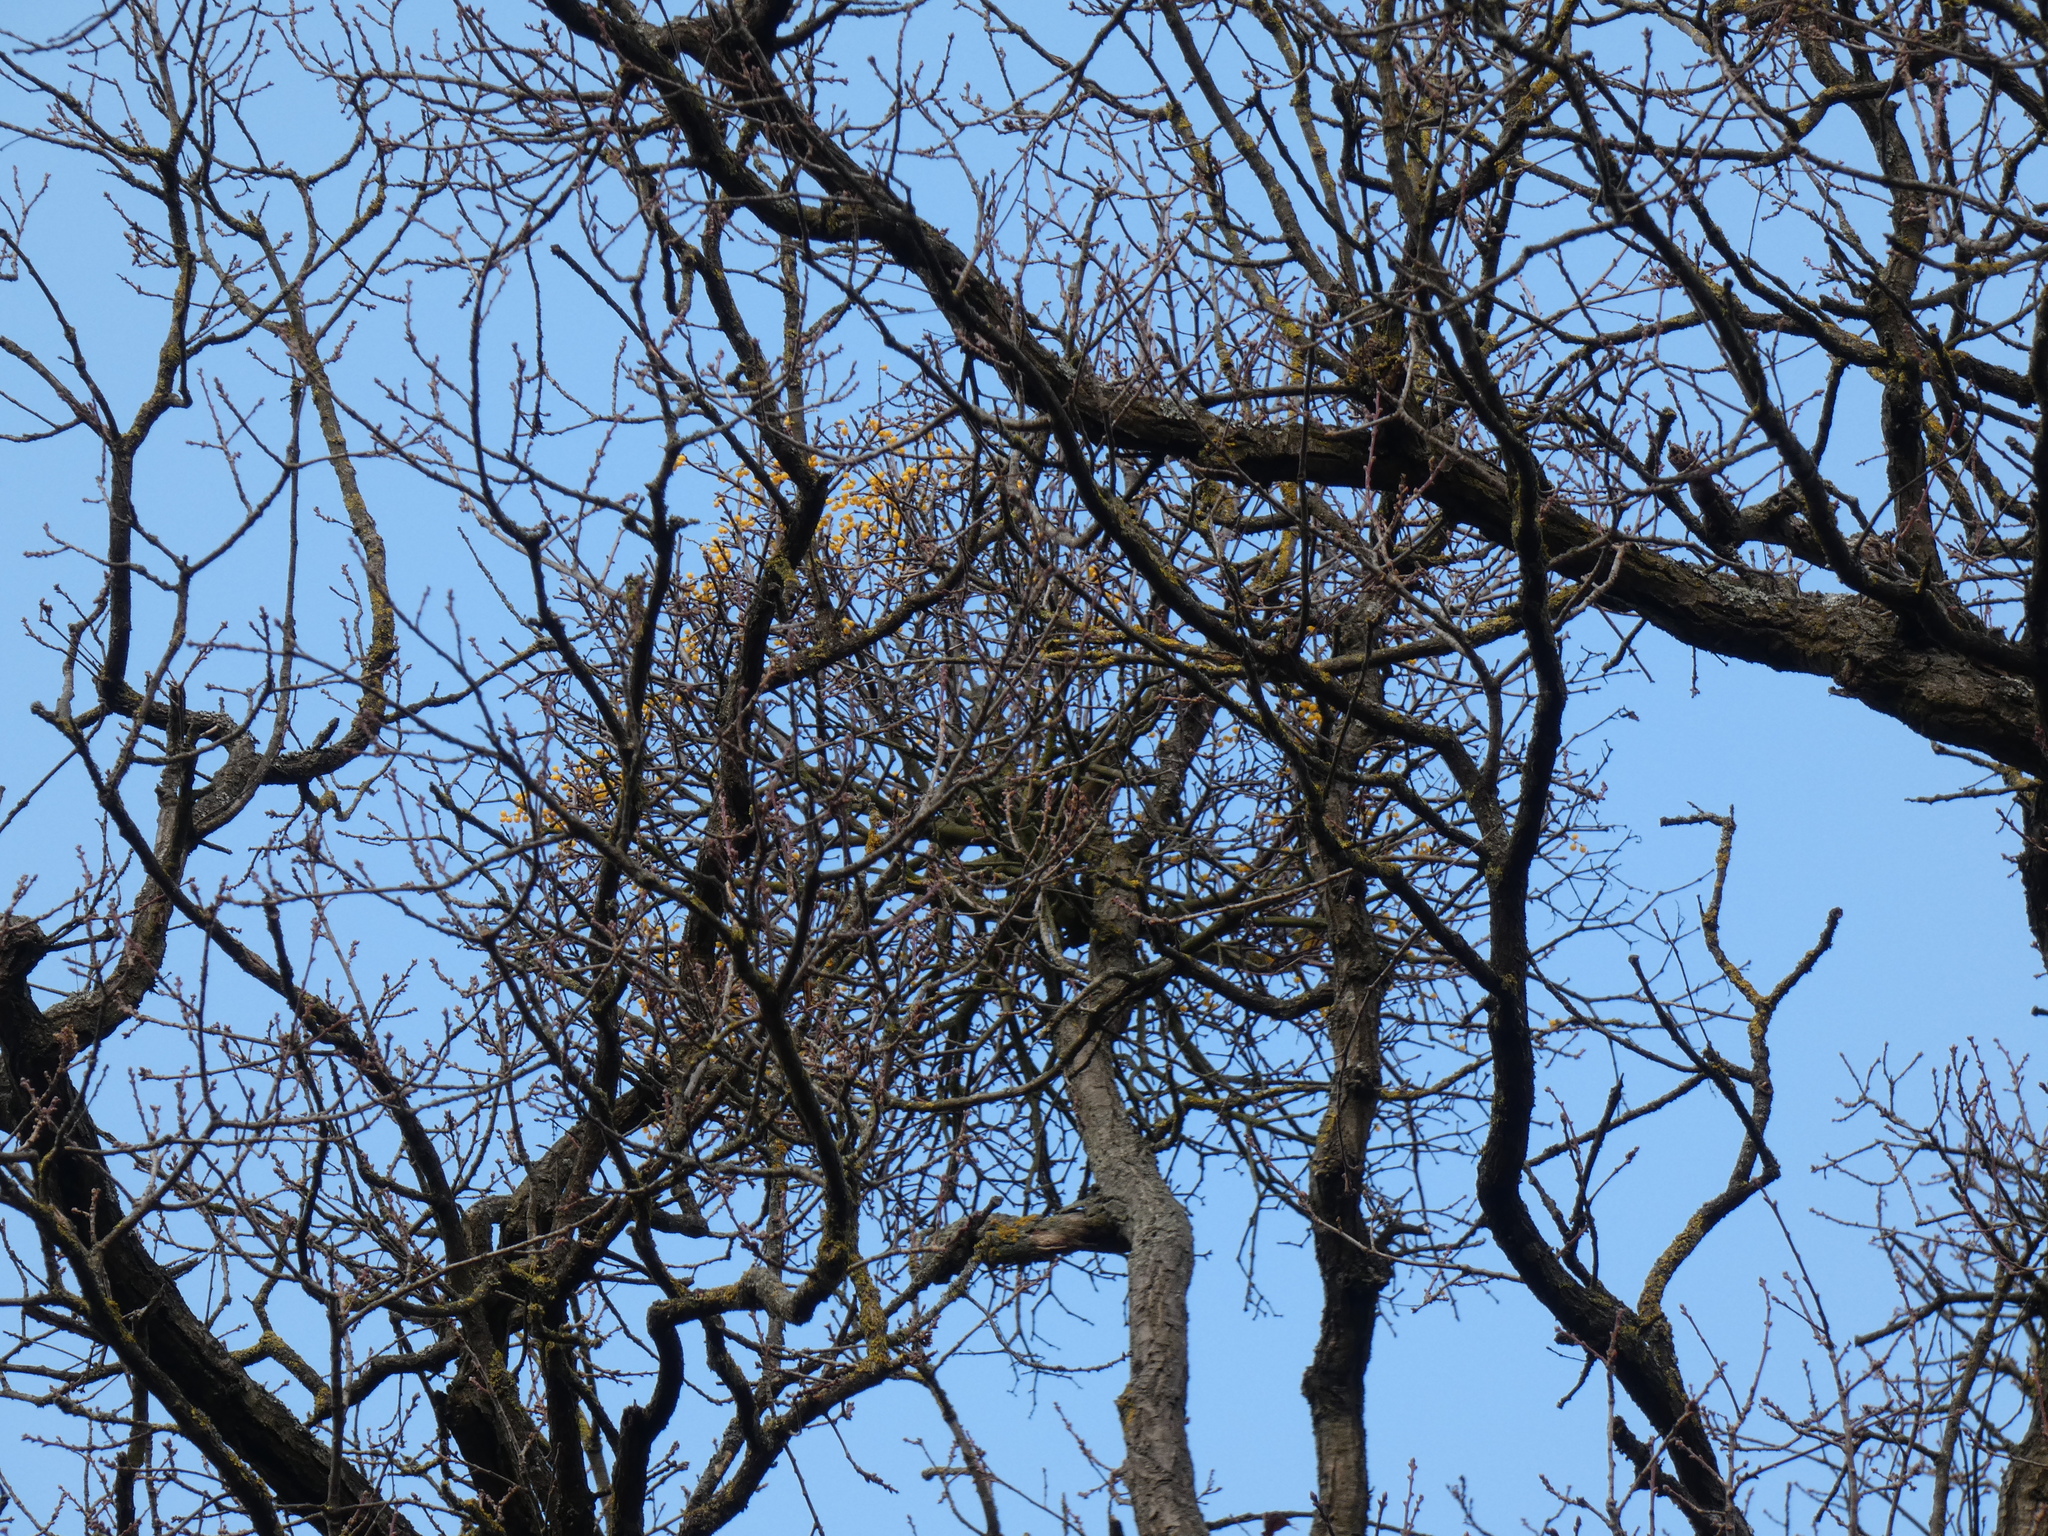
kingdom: Plantae
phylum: Tracheophyta
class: Magnoliopsida
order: Santalales
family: Loranthaceae
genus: Loranthus
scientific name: Loranthus europaeus
